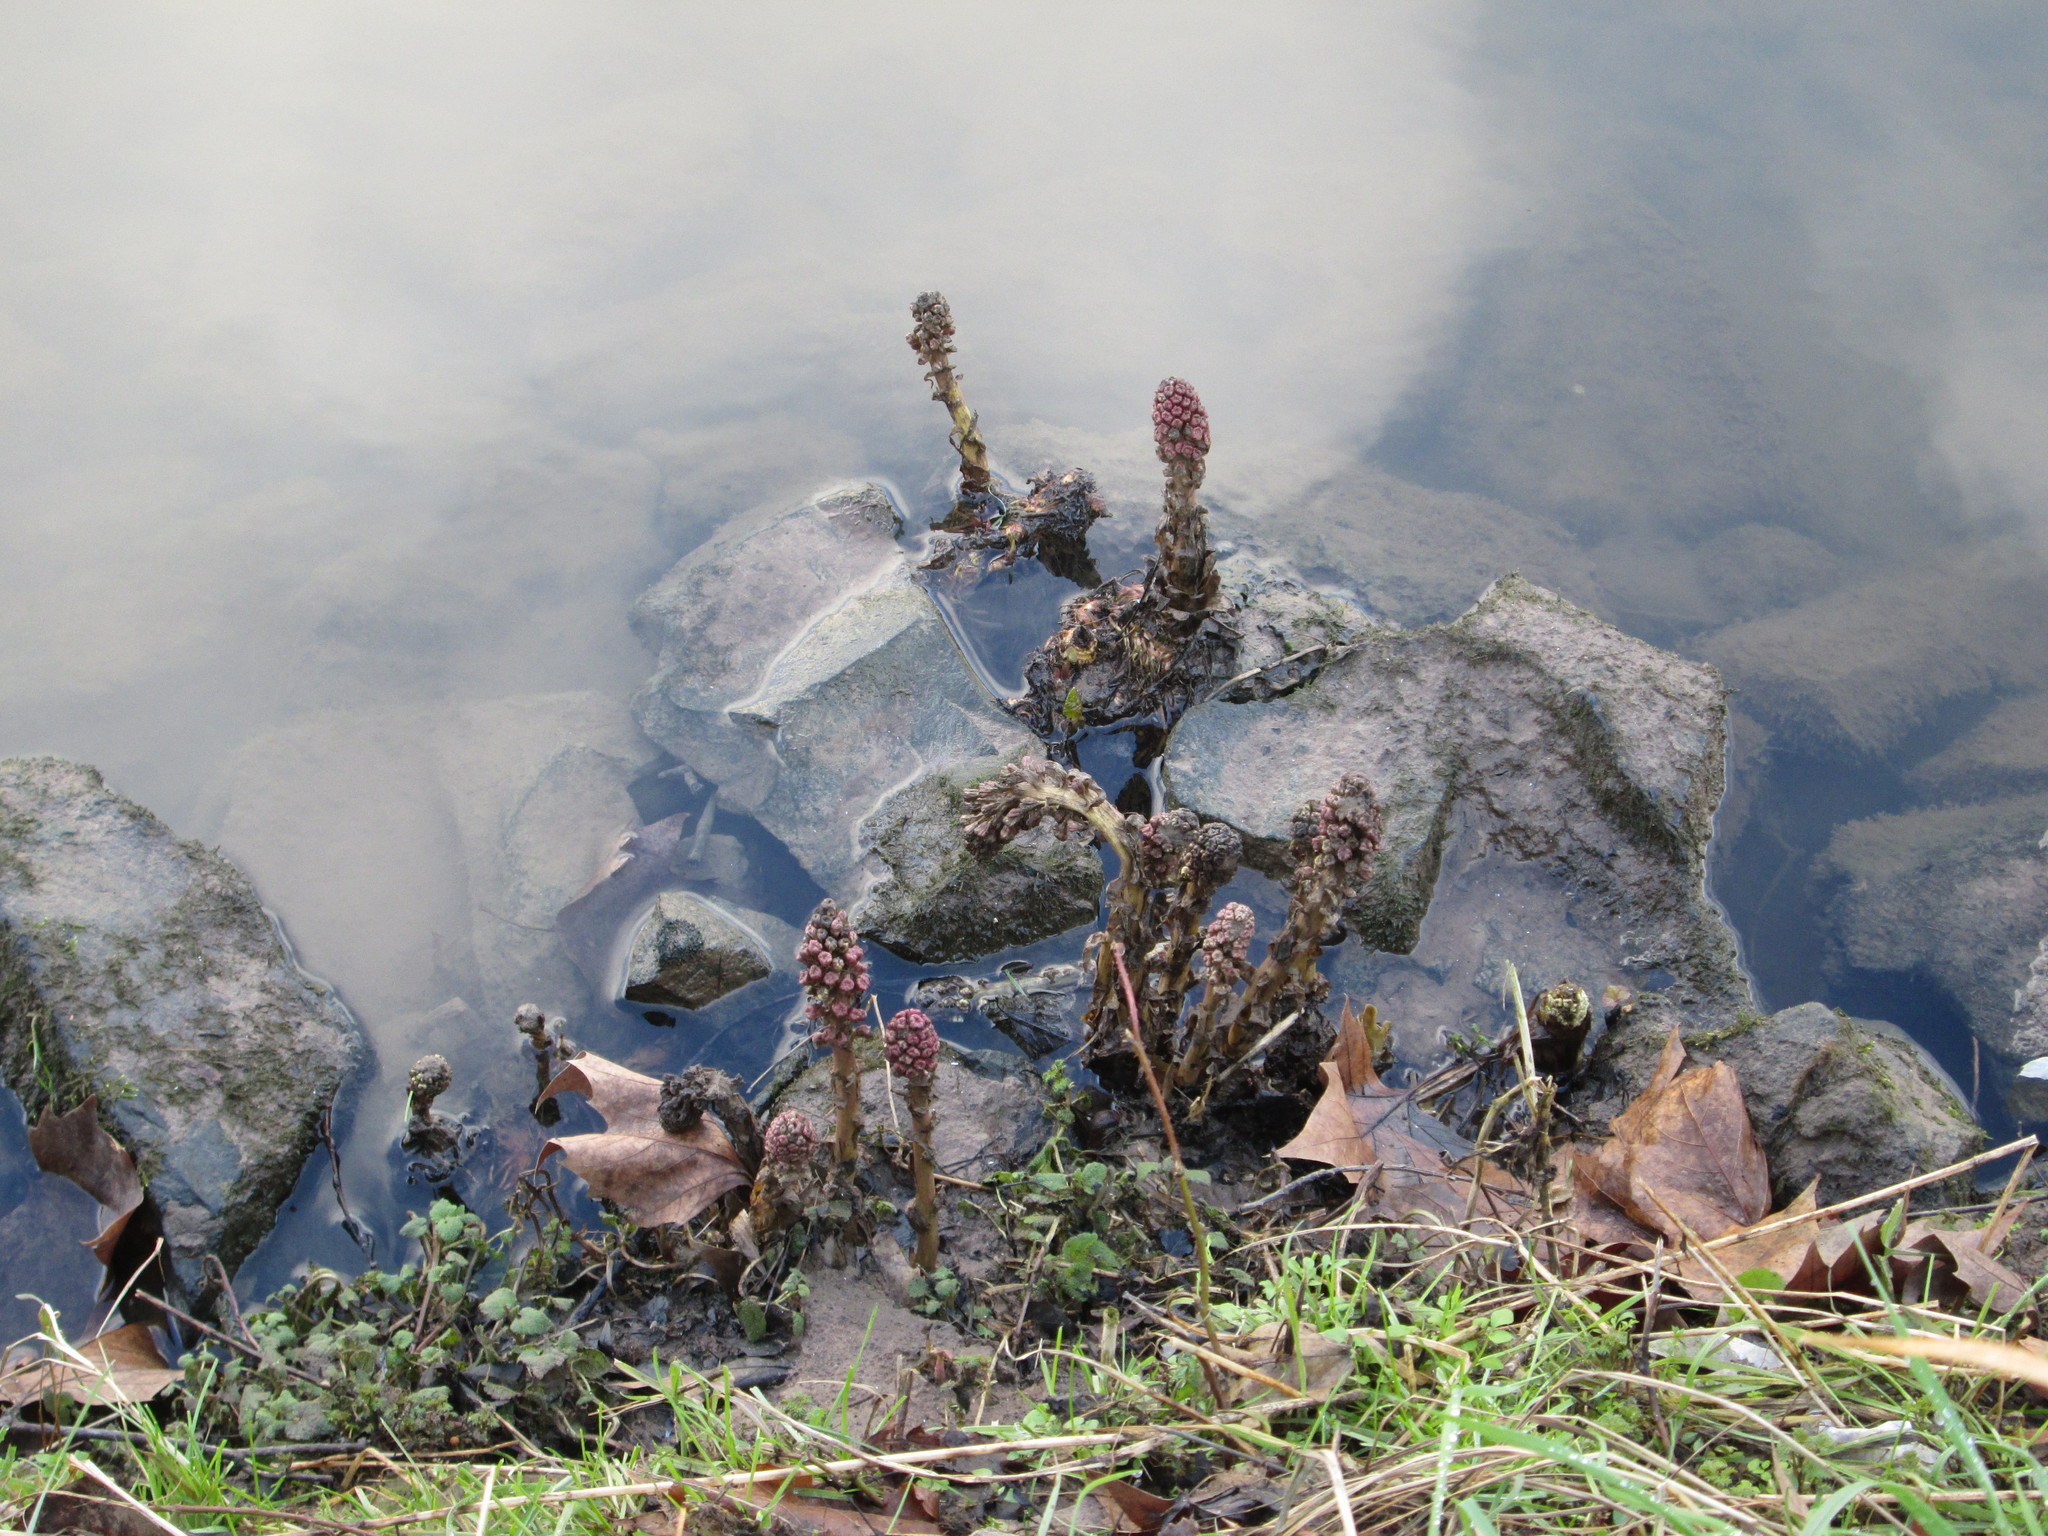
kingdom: Plantae
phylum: Tracheophyta
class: Magnoliopsida
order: Asterales
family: Asteraceae
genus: Petasites
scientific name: Petasites hybridus
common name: Butterbur
